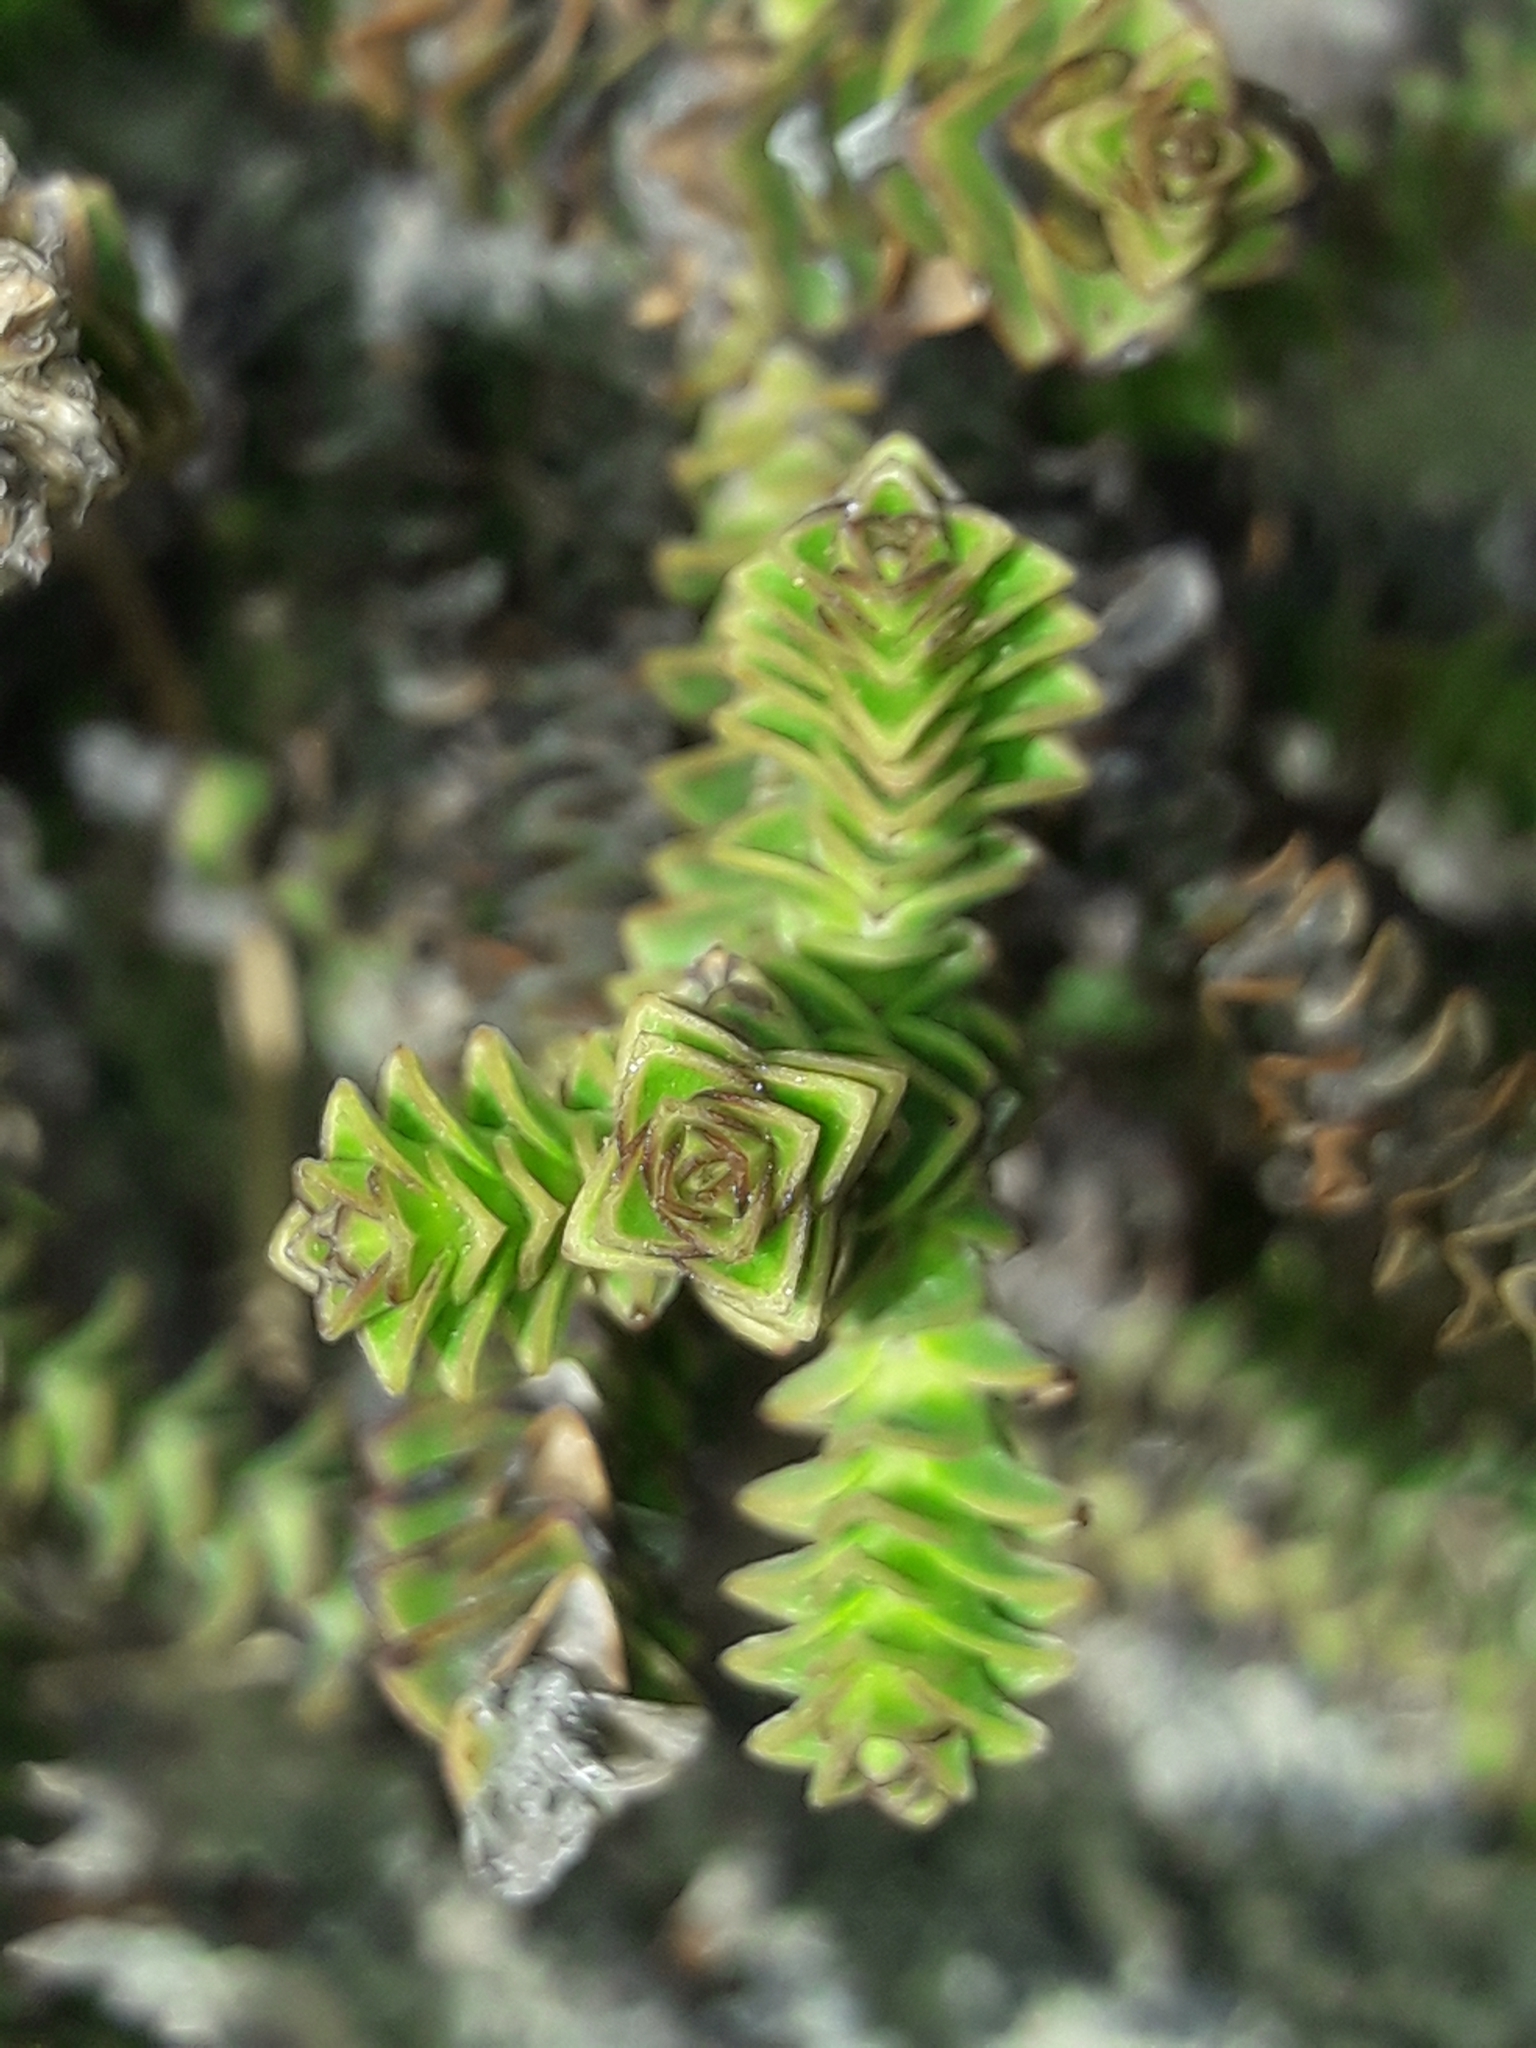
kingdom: Plantae
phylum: Tracheophyta
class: Magnoliopsida
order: Lamiales
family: Plantaginaceae
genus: Veronica
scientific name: Veronica epacridea
